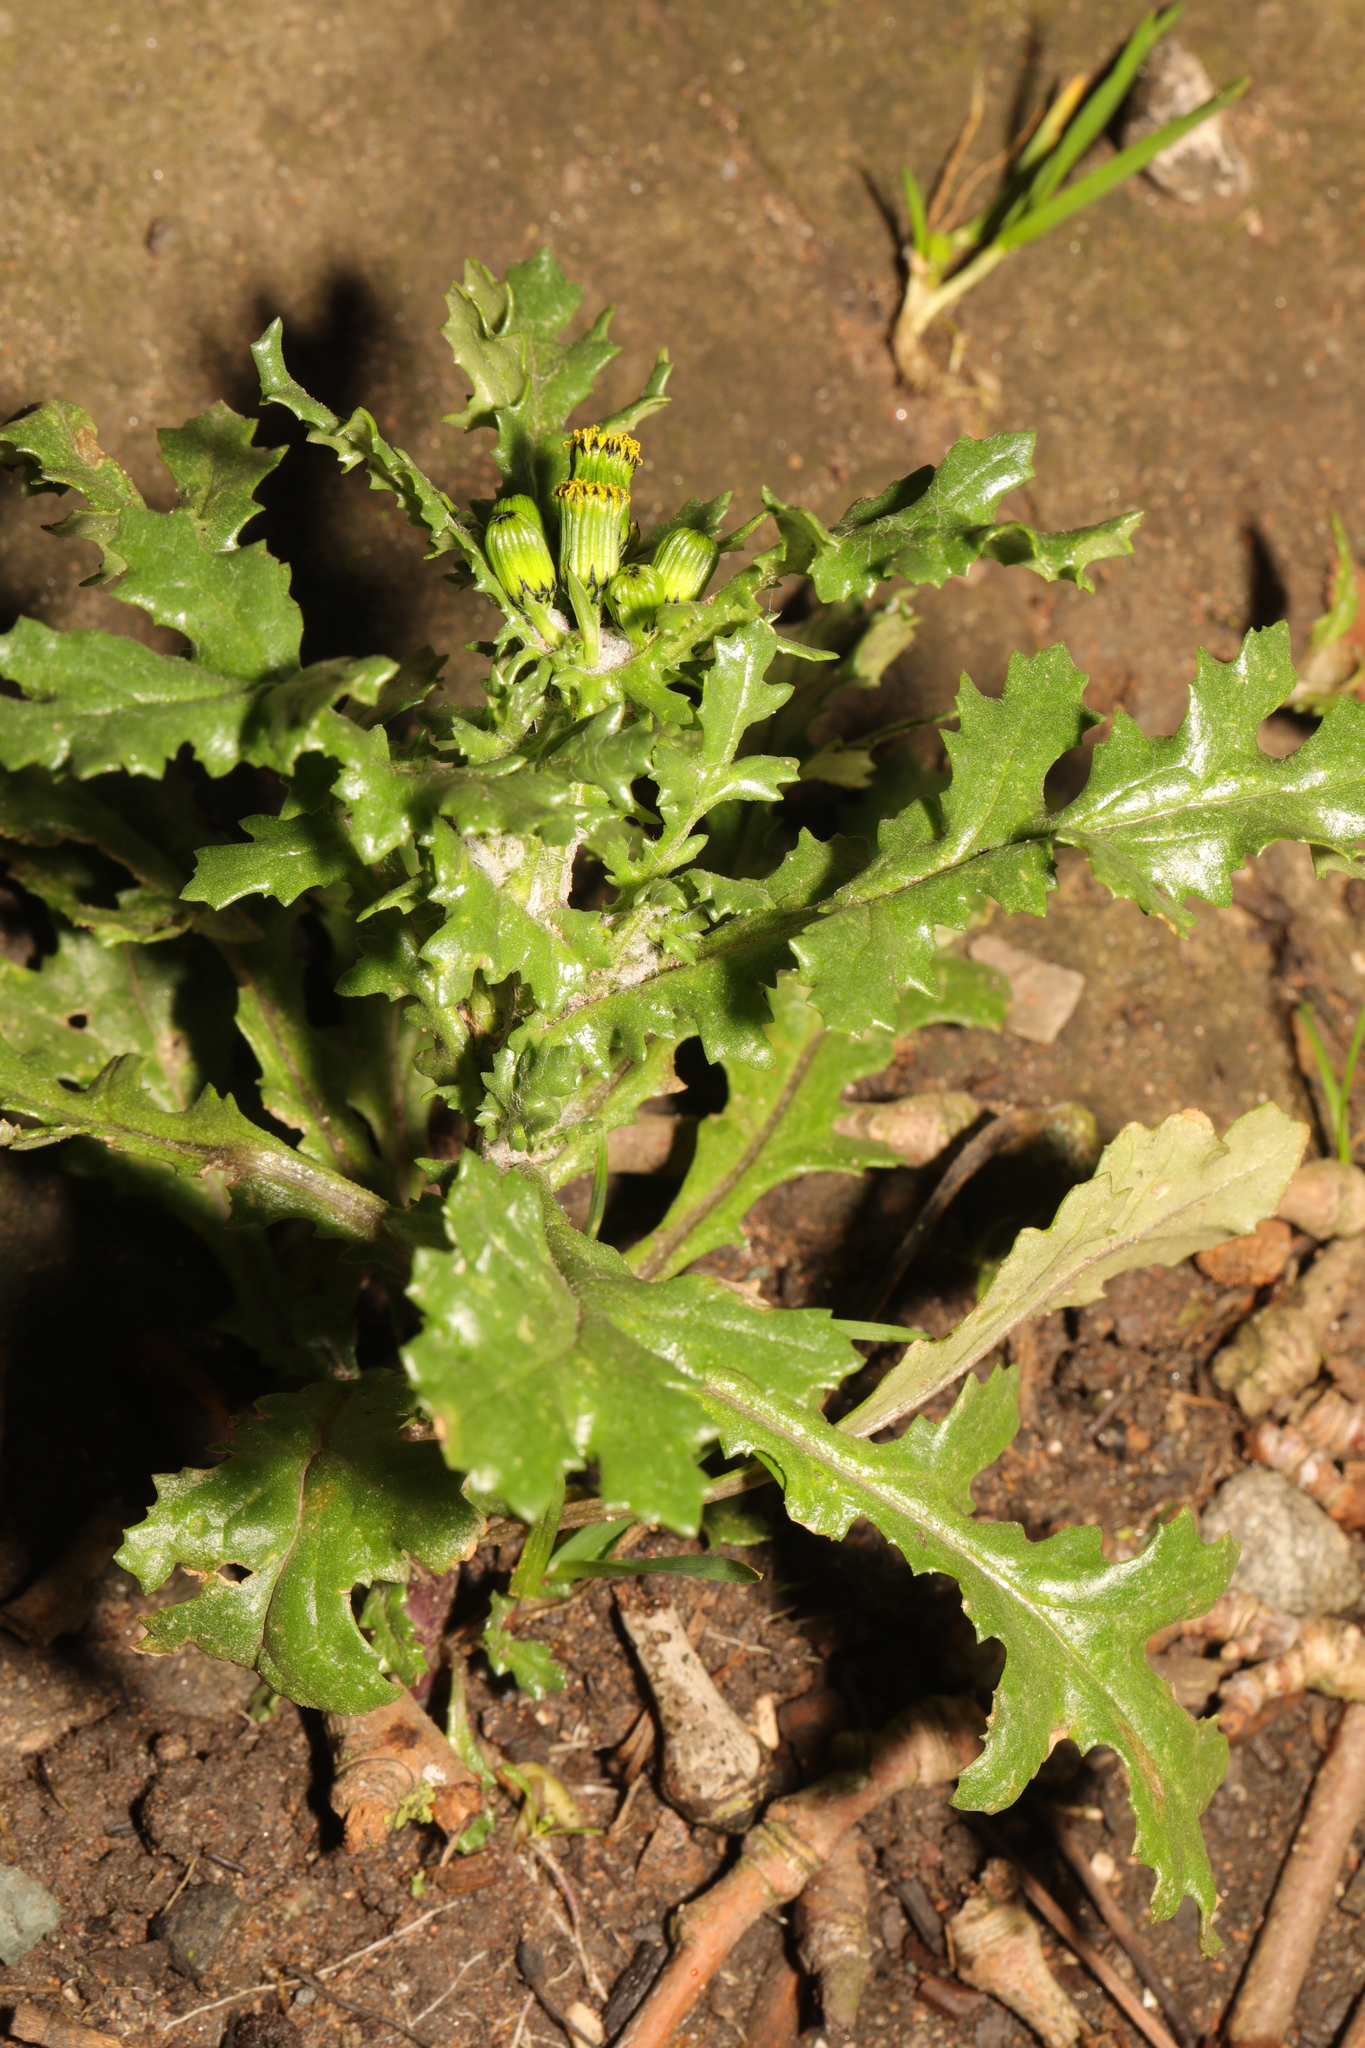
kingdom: Plantae
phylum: Tracheophyta
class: Magnoliopsida
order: Asterales
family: Asteraceae
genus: Senecio
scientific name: Senecio vulgaris
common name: Old-man-in-the-spring
